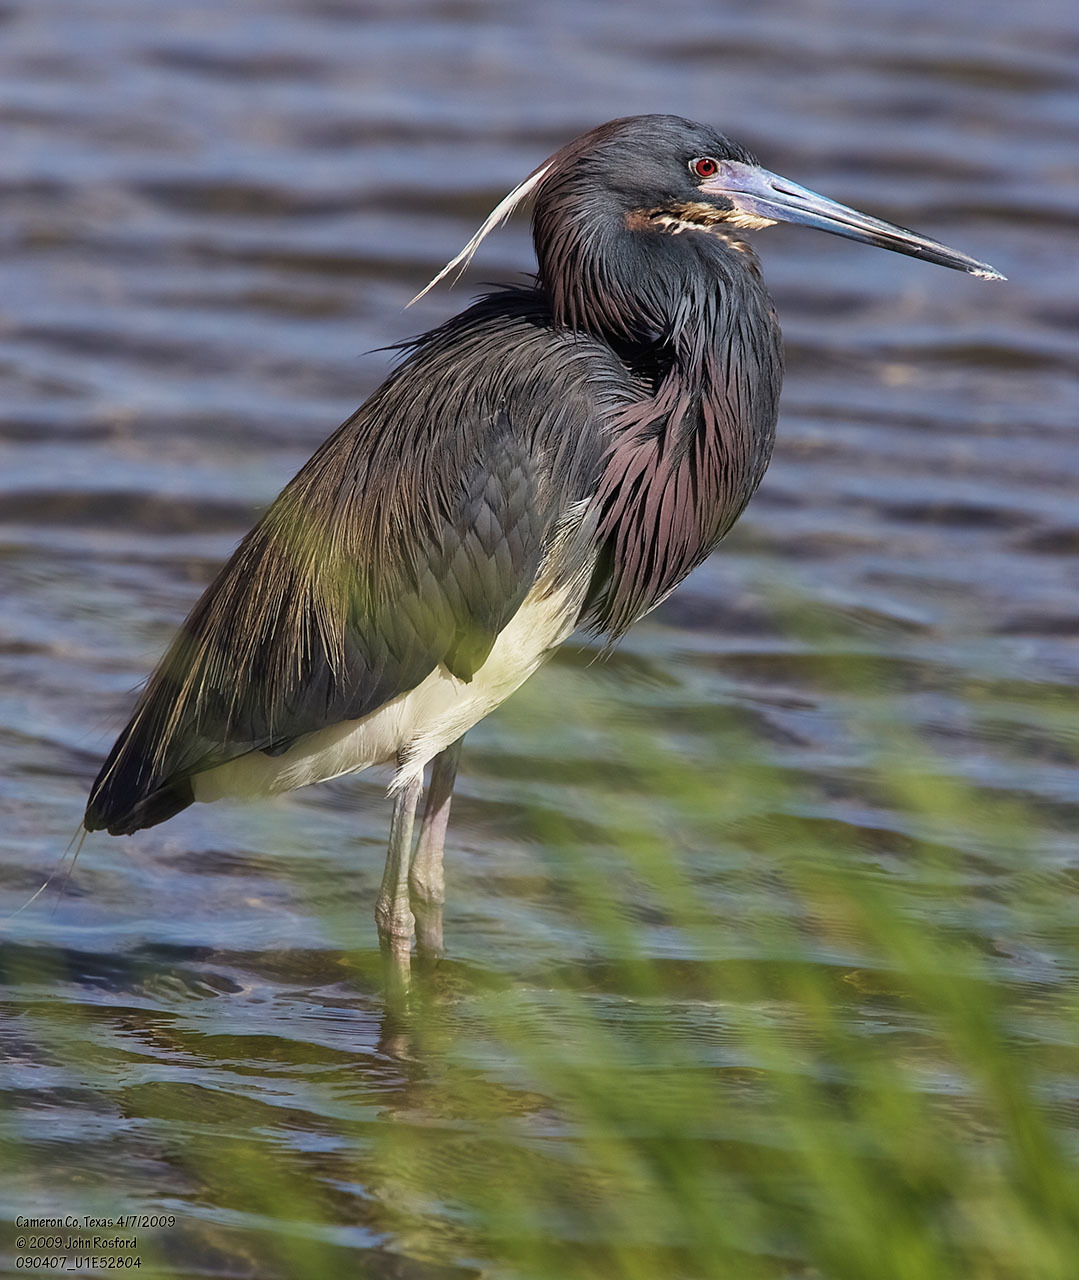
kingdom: Animalia
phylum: Chordata
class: Aves
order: Pelecaniformes
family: Ardeidae
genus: Egretta
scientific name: Egretta tricolor
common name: Tricolored heron
